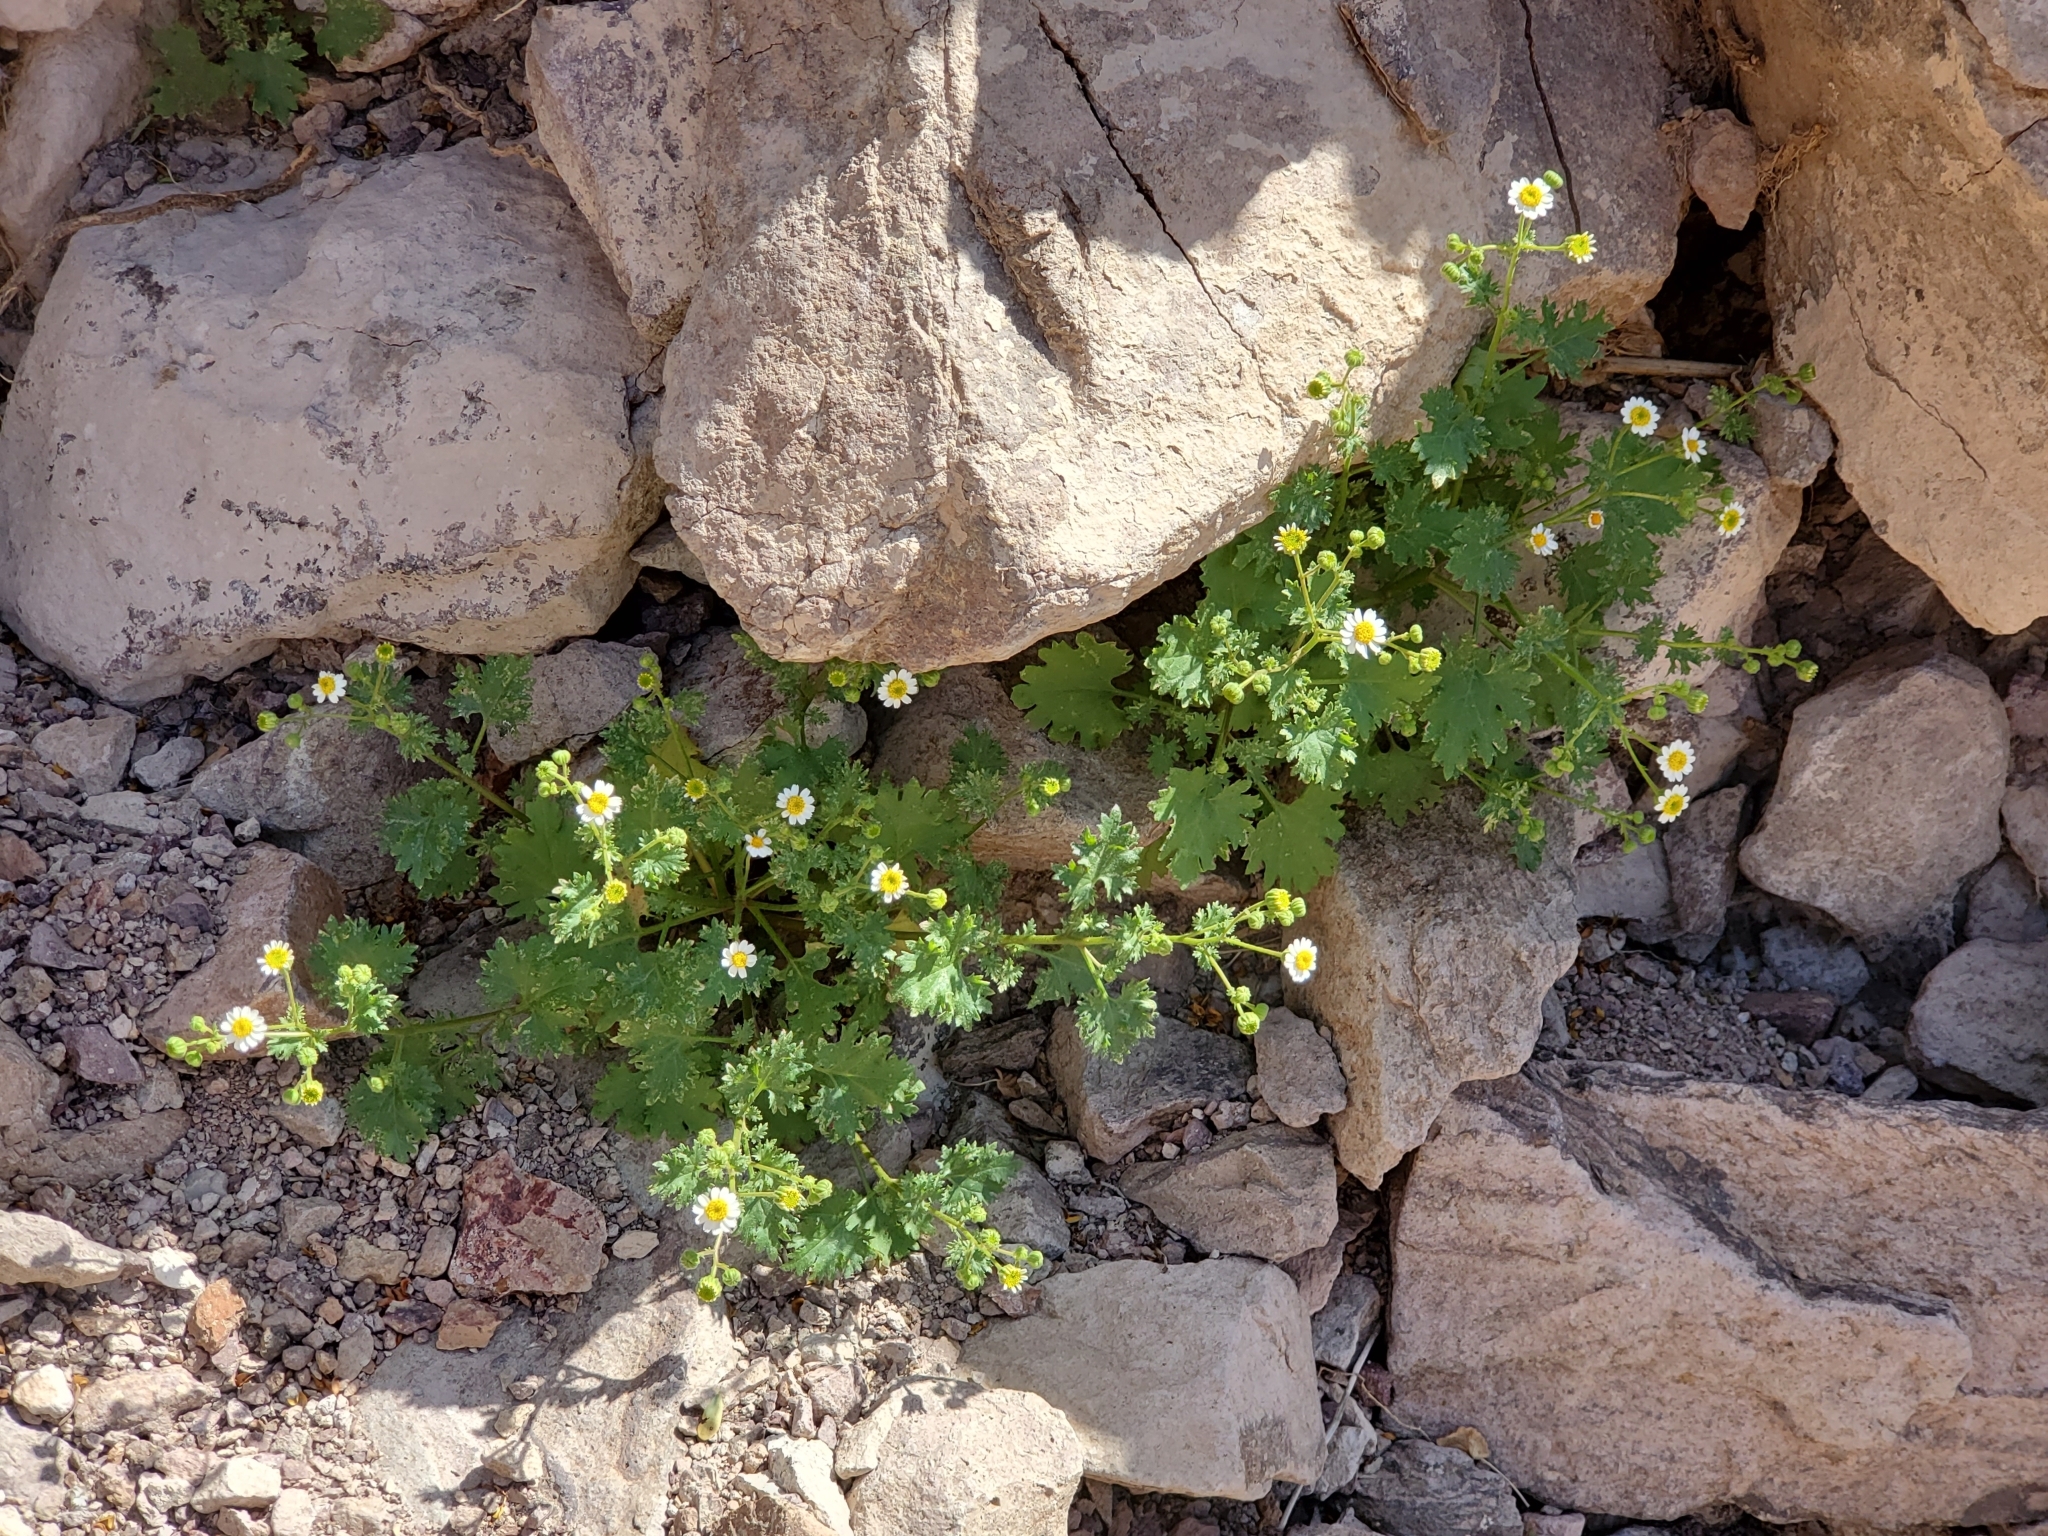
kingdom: Plantae
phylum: Tracheophyta
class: Magnoliopsida
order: Asterales
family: Asteraceae
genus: Laphamia
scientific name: Laphamia emoryi
